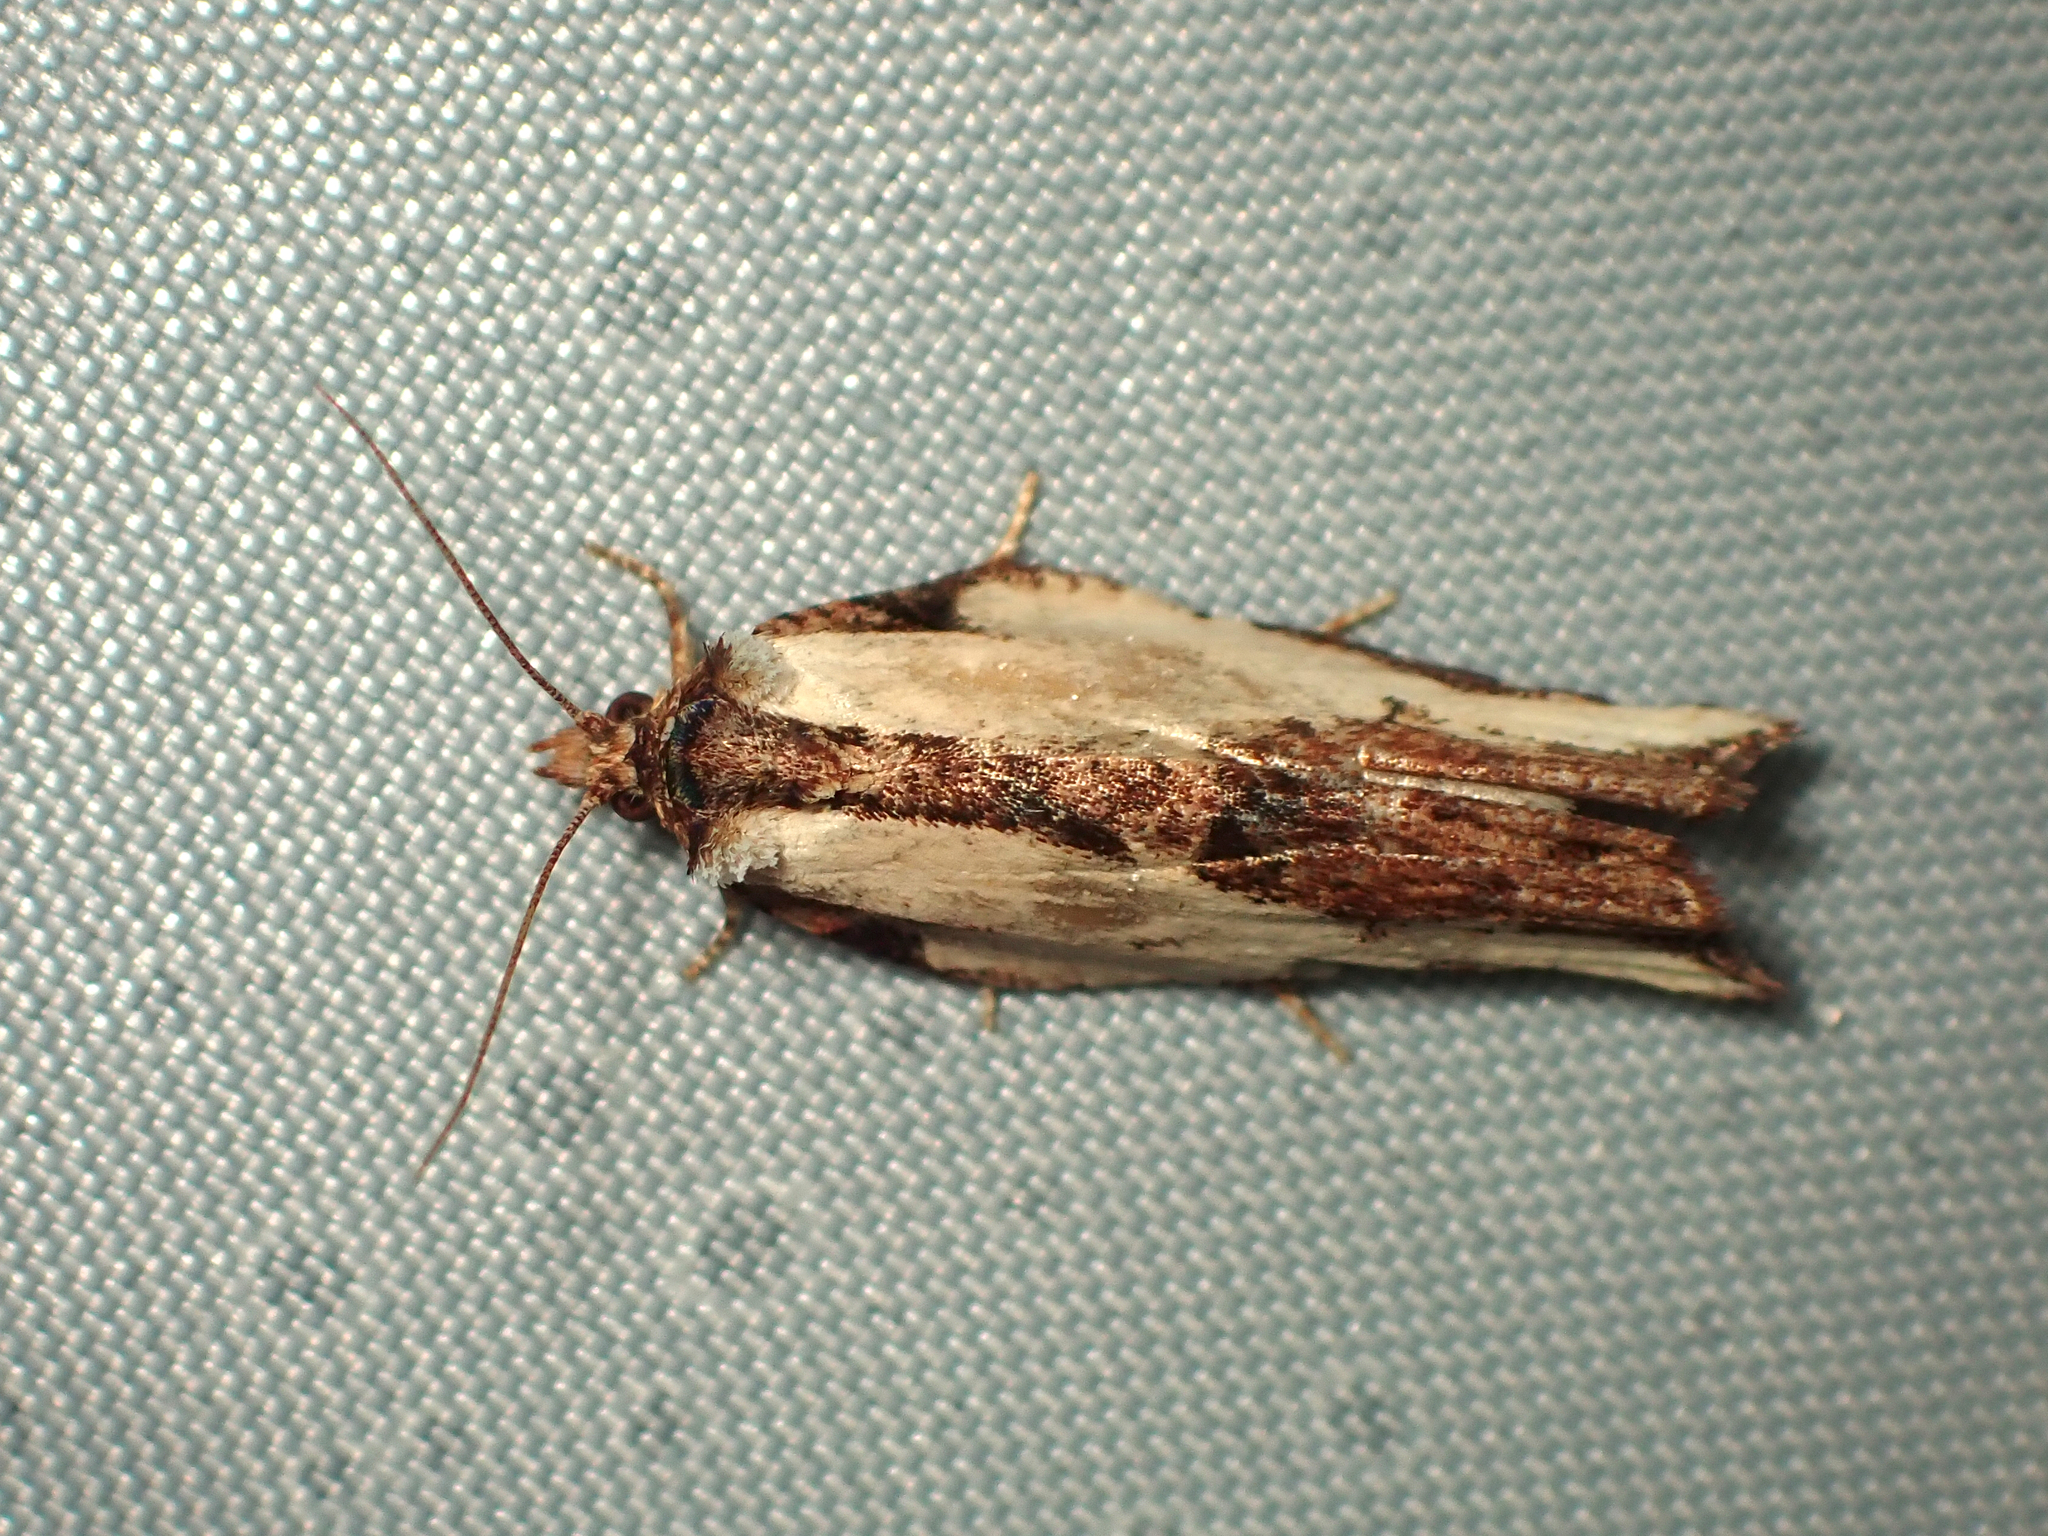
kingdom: Animalia
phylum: Arthropoda
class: Insecta
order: Lepidoptera
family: Tortricidae
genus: Epalxiphora
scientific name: Epalxiphora axenana
